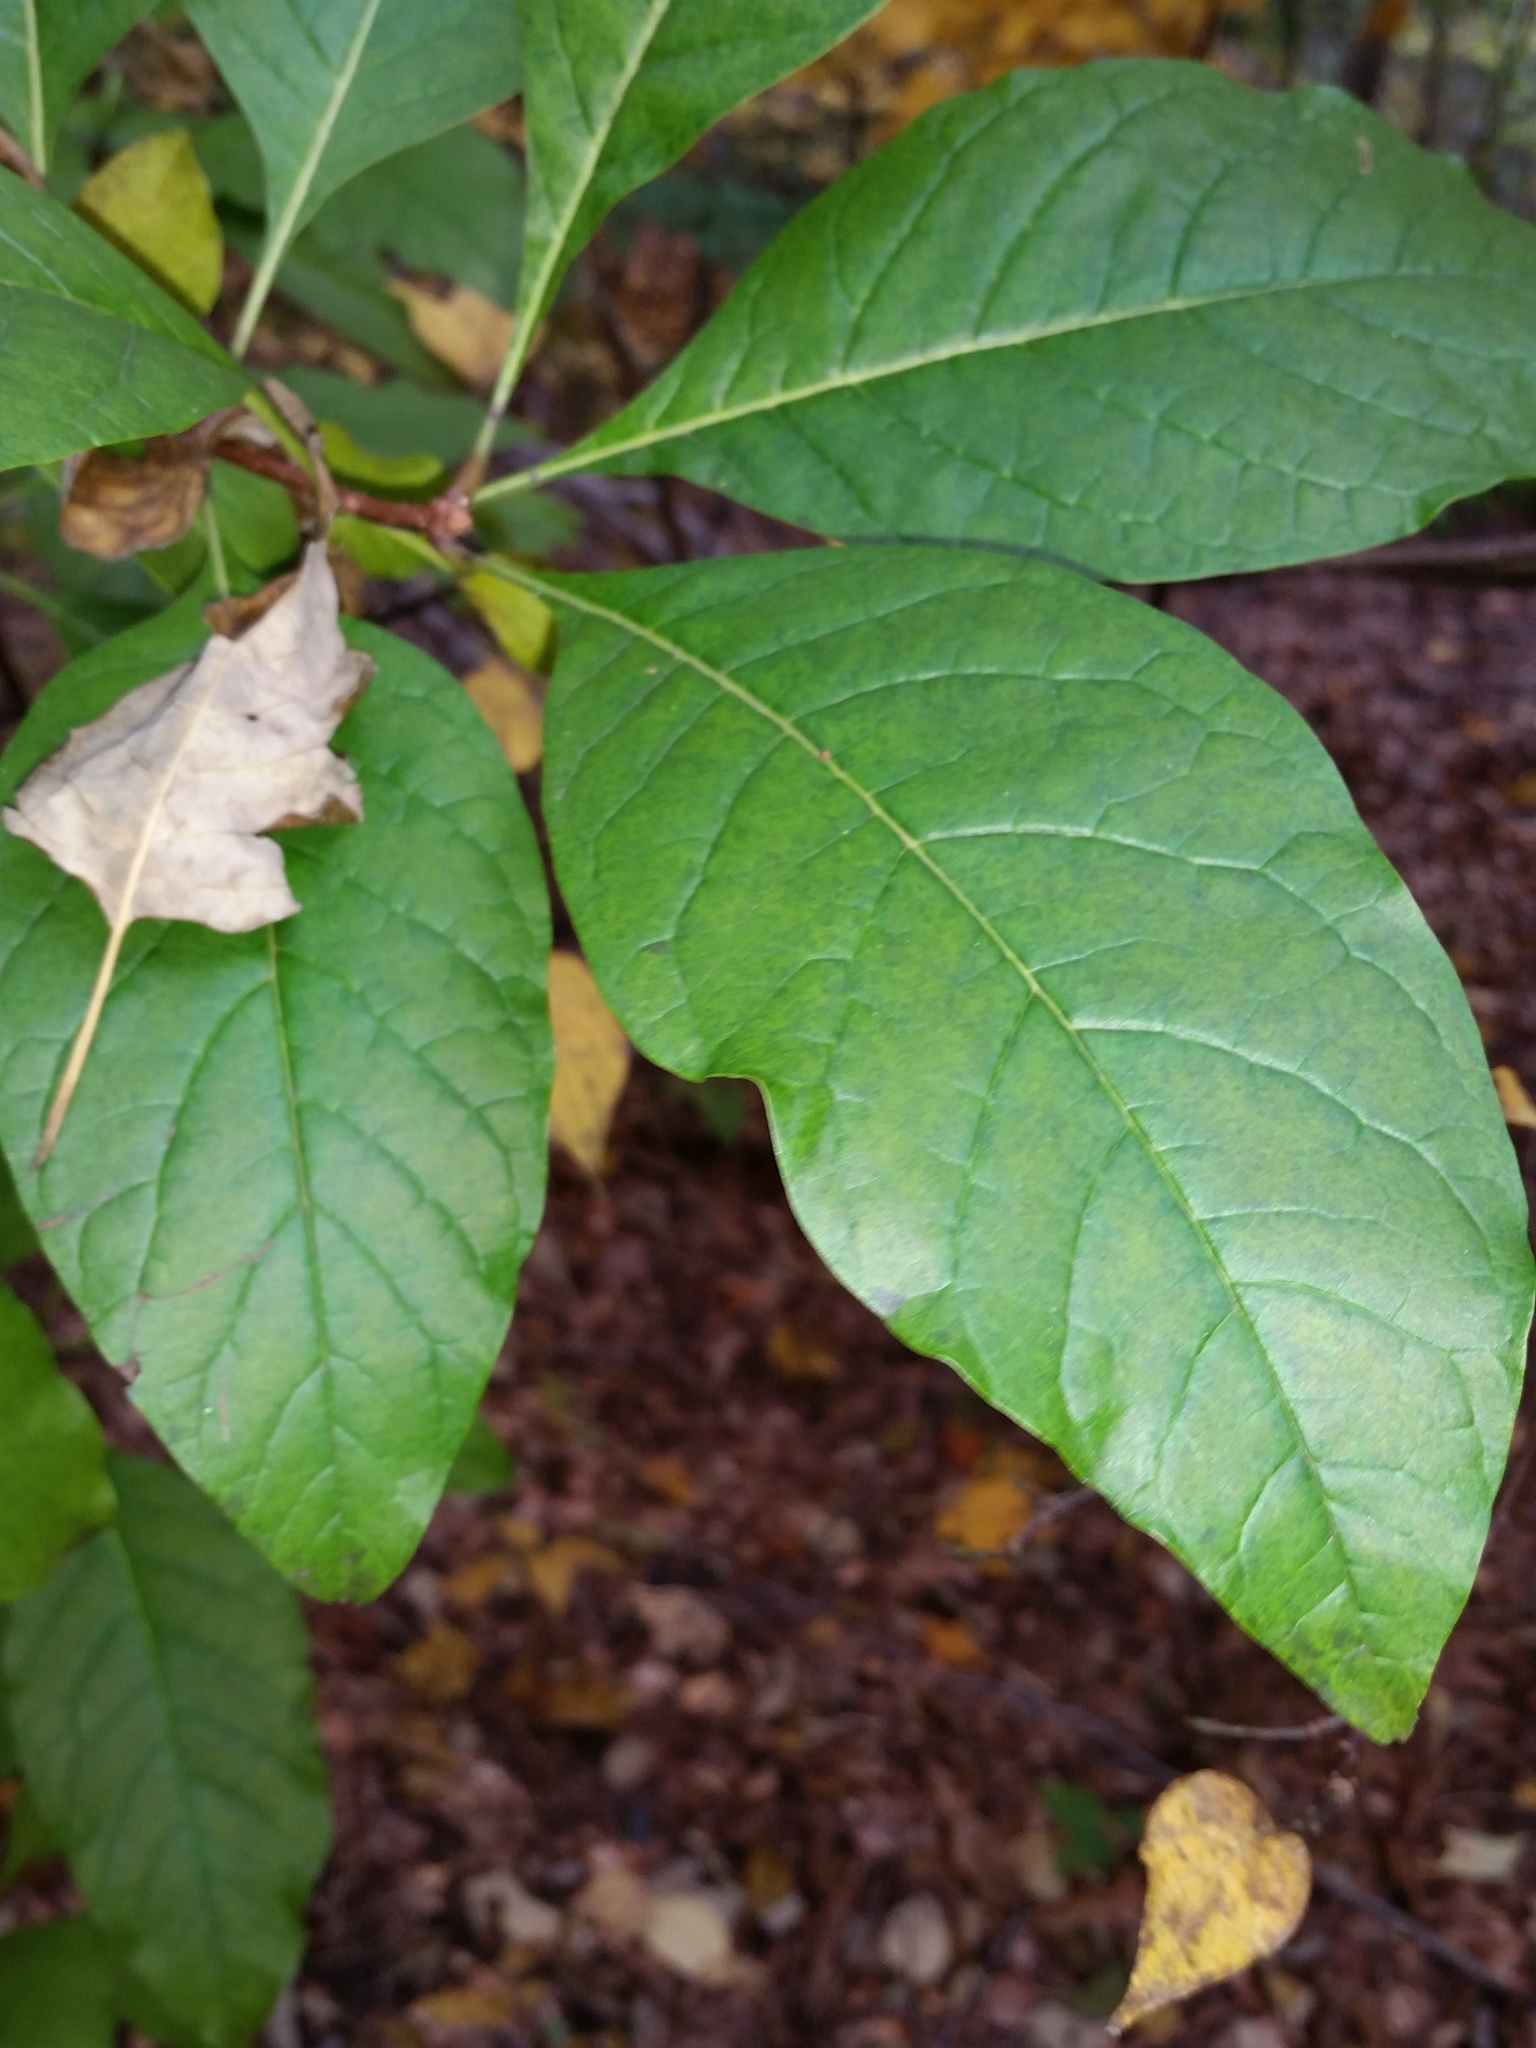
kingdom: Plantae
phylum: Tracheophyta
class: Magnoliopsida
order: Lamiales
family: Oleaceae
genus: Chionanthus
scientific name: Chionanthus virginicus
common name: American fringetree
